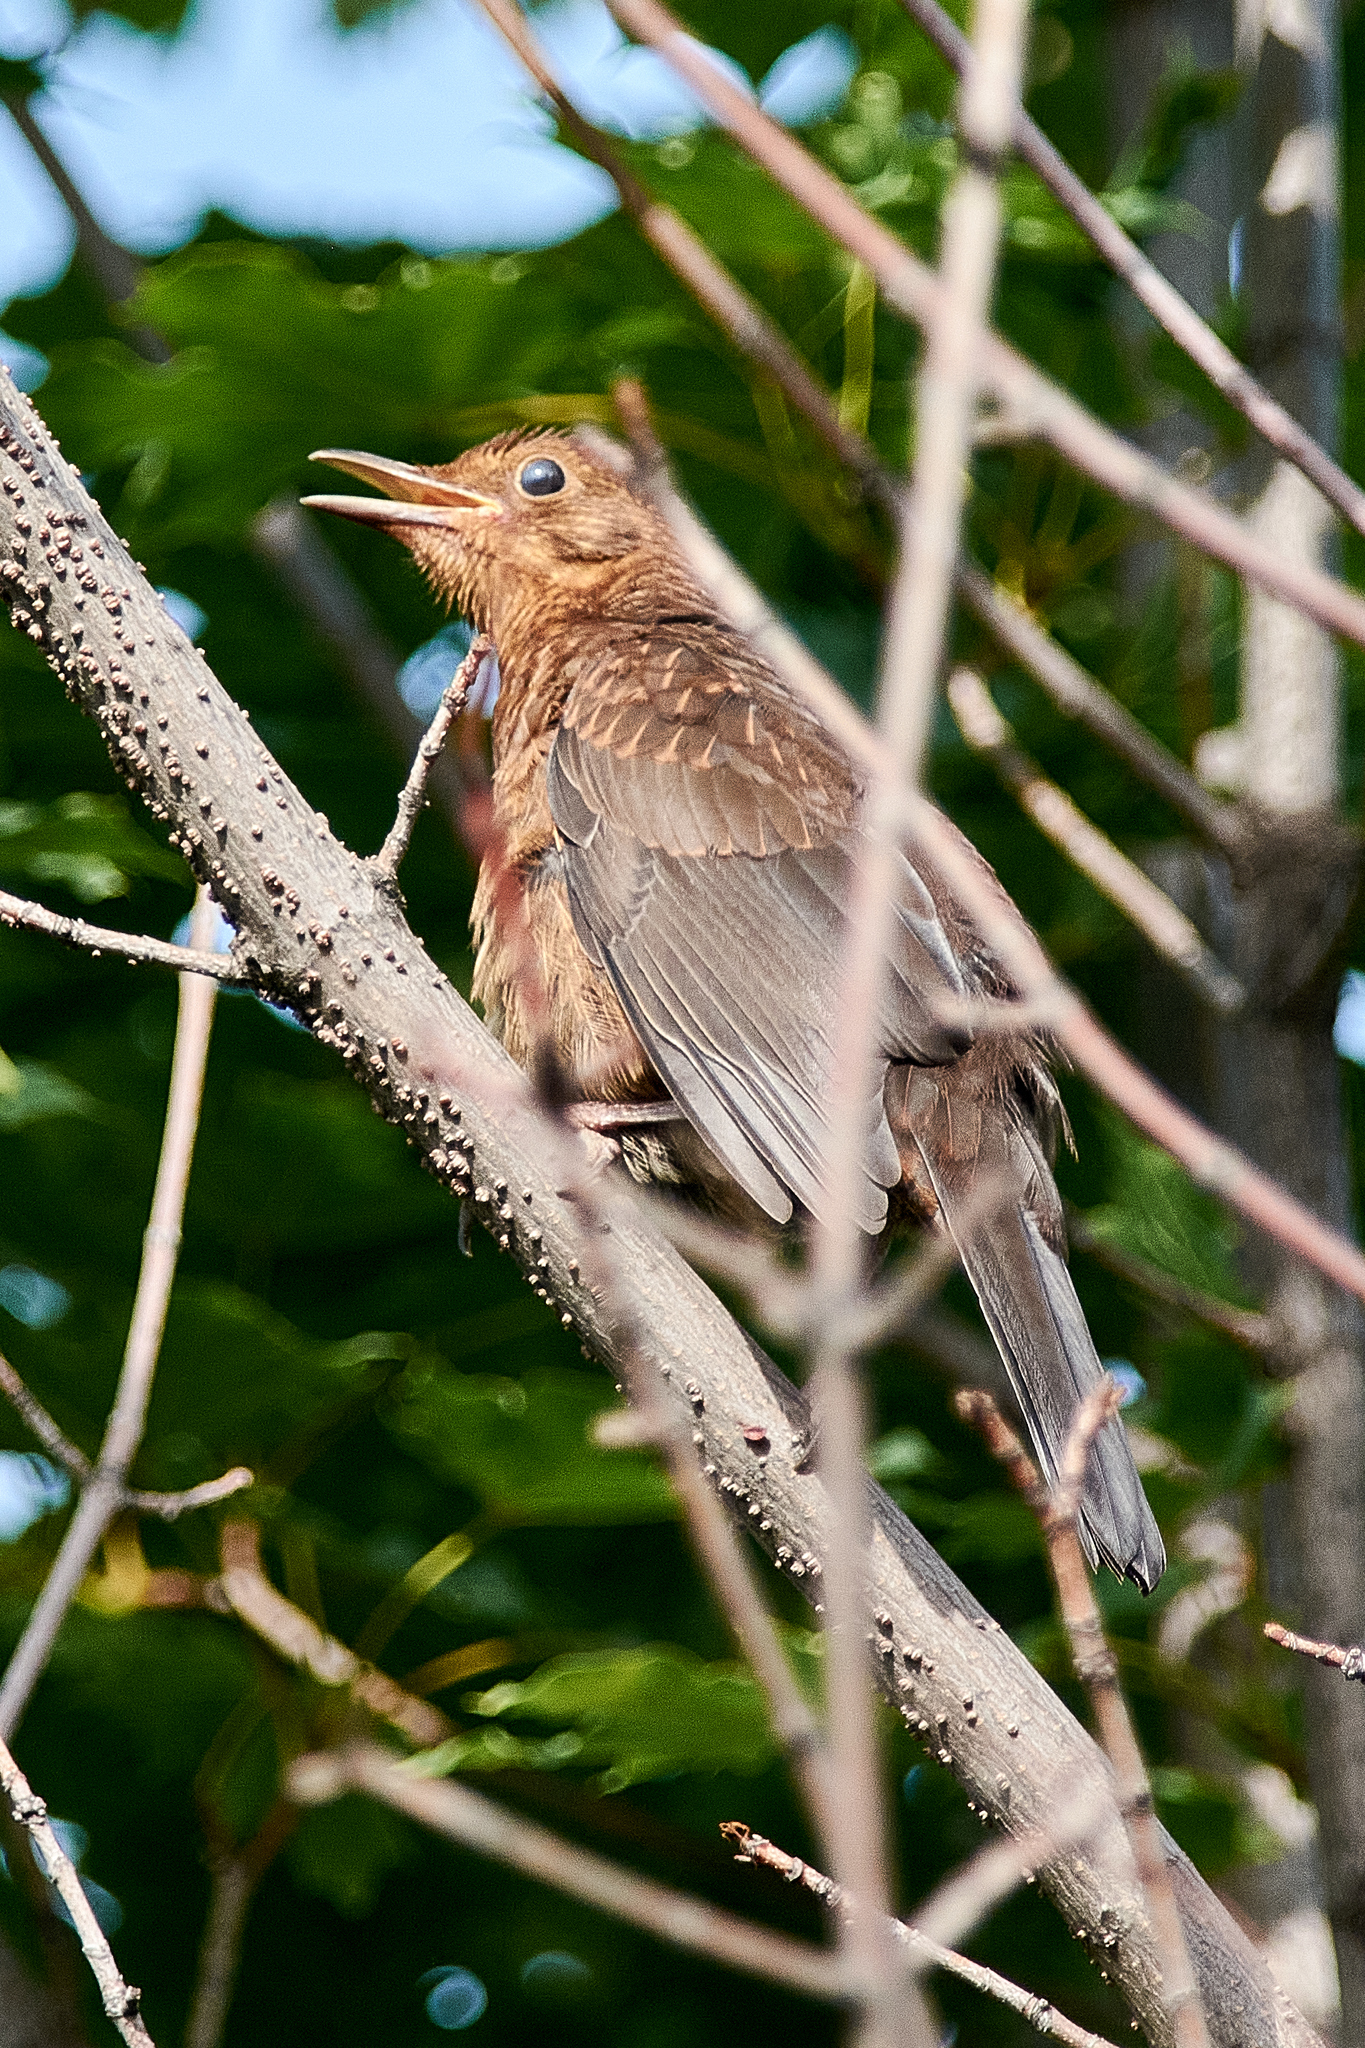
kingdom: Animalia
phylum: Chordata
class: Aves
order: Passeriformes
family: Turdidae
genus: Turdus
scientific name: Turdus merula
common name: Common blackbird
